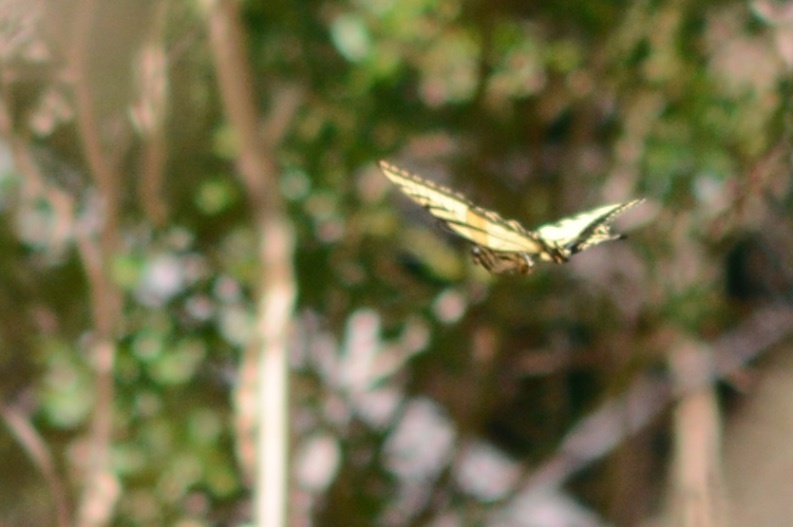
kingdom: Animalia
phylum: Arthropoda
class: Insecta
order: Lepidoptera
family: Papilionidae
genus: Papilio
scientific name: Papilio rutulus
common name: Western tiger swallowtail
